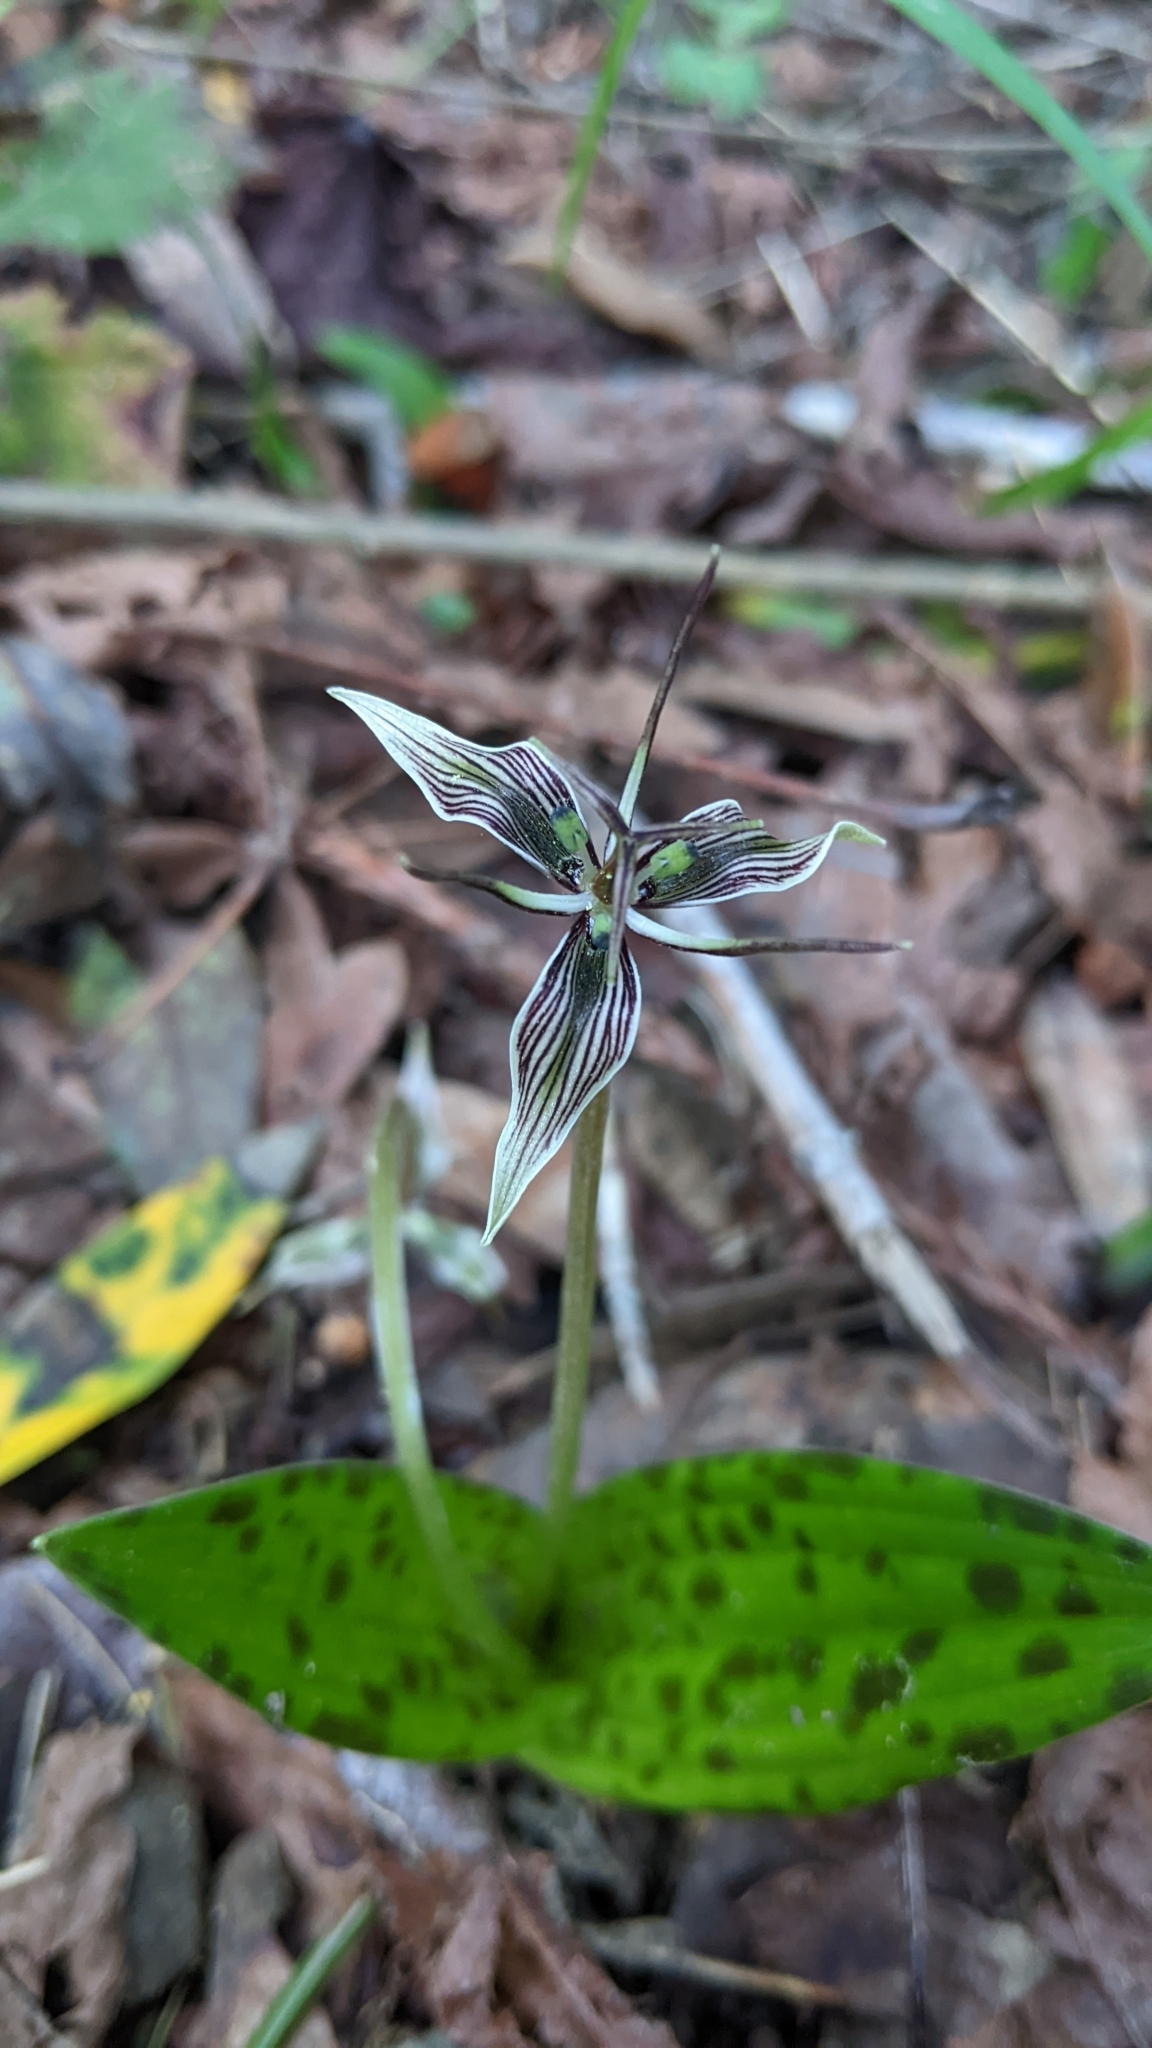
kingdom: Plantae
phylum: Tracheophyta
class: Liliopsida
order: Liliales
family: Liliaceae
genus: Scoliopus
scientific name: Scoliopus bigelovii
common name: Foetid adder's-tongue
